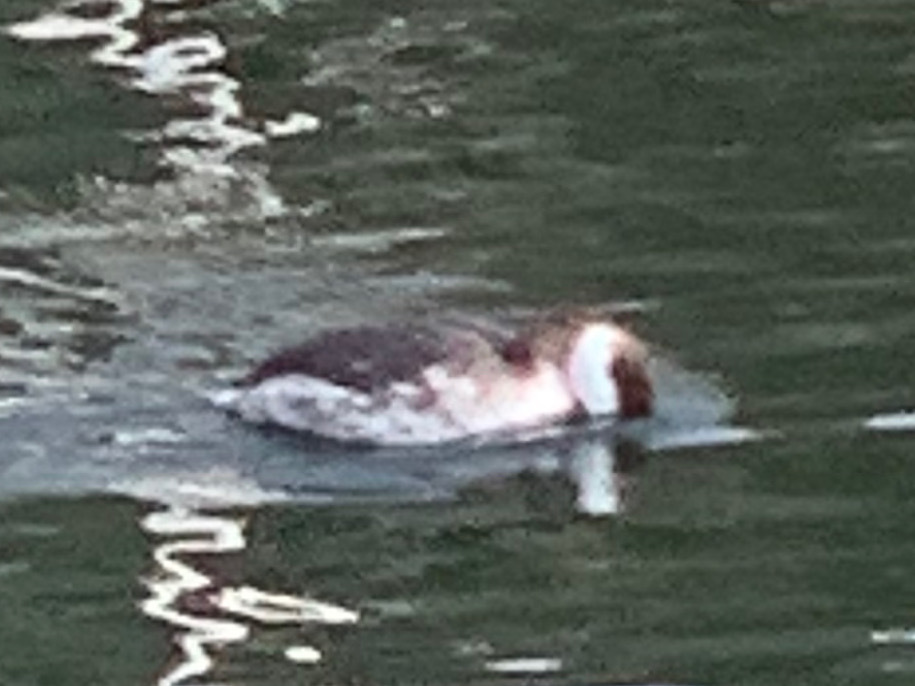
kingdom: Animalia
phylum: Chordata
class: Aves
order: Podicipediformes
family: Podicipedidae
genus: Podiceps
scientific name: Podiceps auritus
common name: Horned grebe
